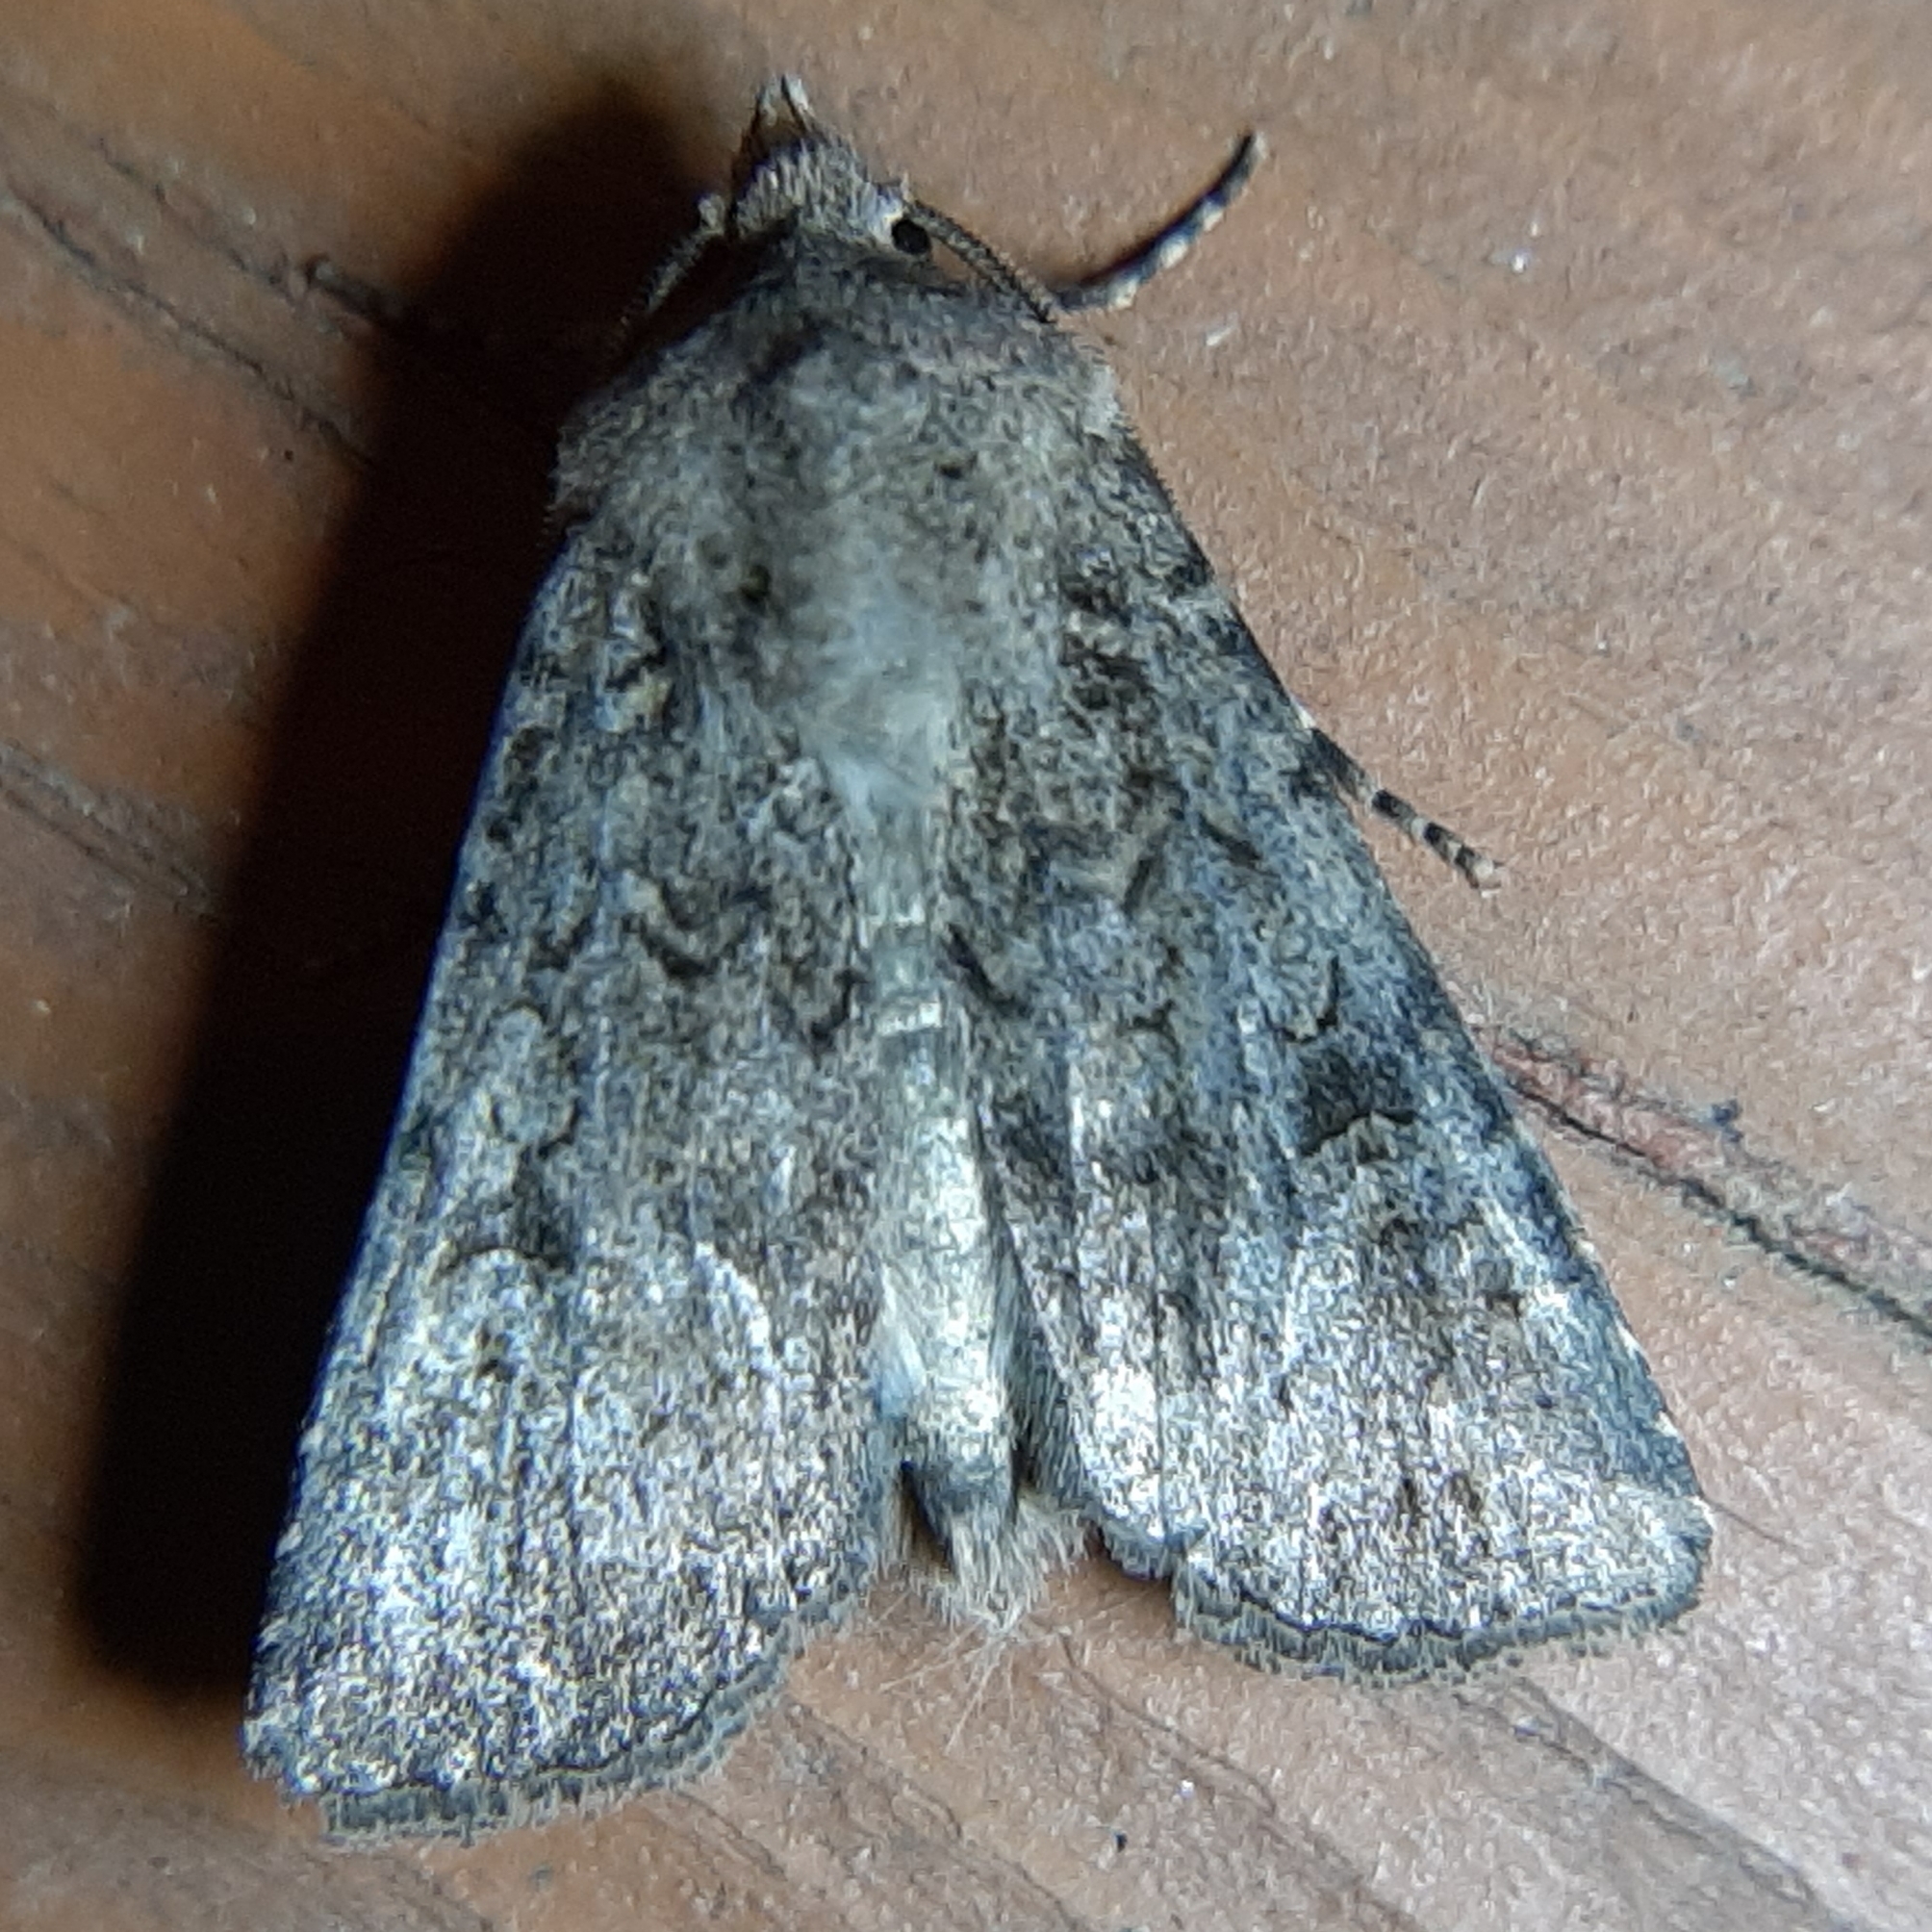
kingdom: Animalia
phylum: Arthropoda
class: Insecta
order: Lepidoptera
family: Noctuidae
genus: Euxoa
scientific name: Euxoa messoria
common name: Darksided cutworm
